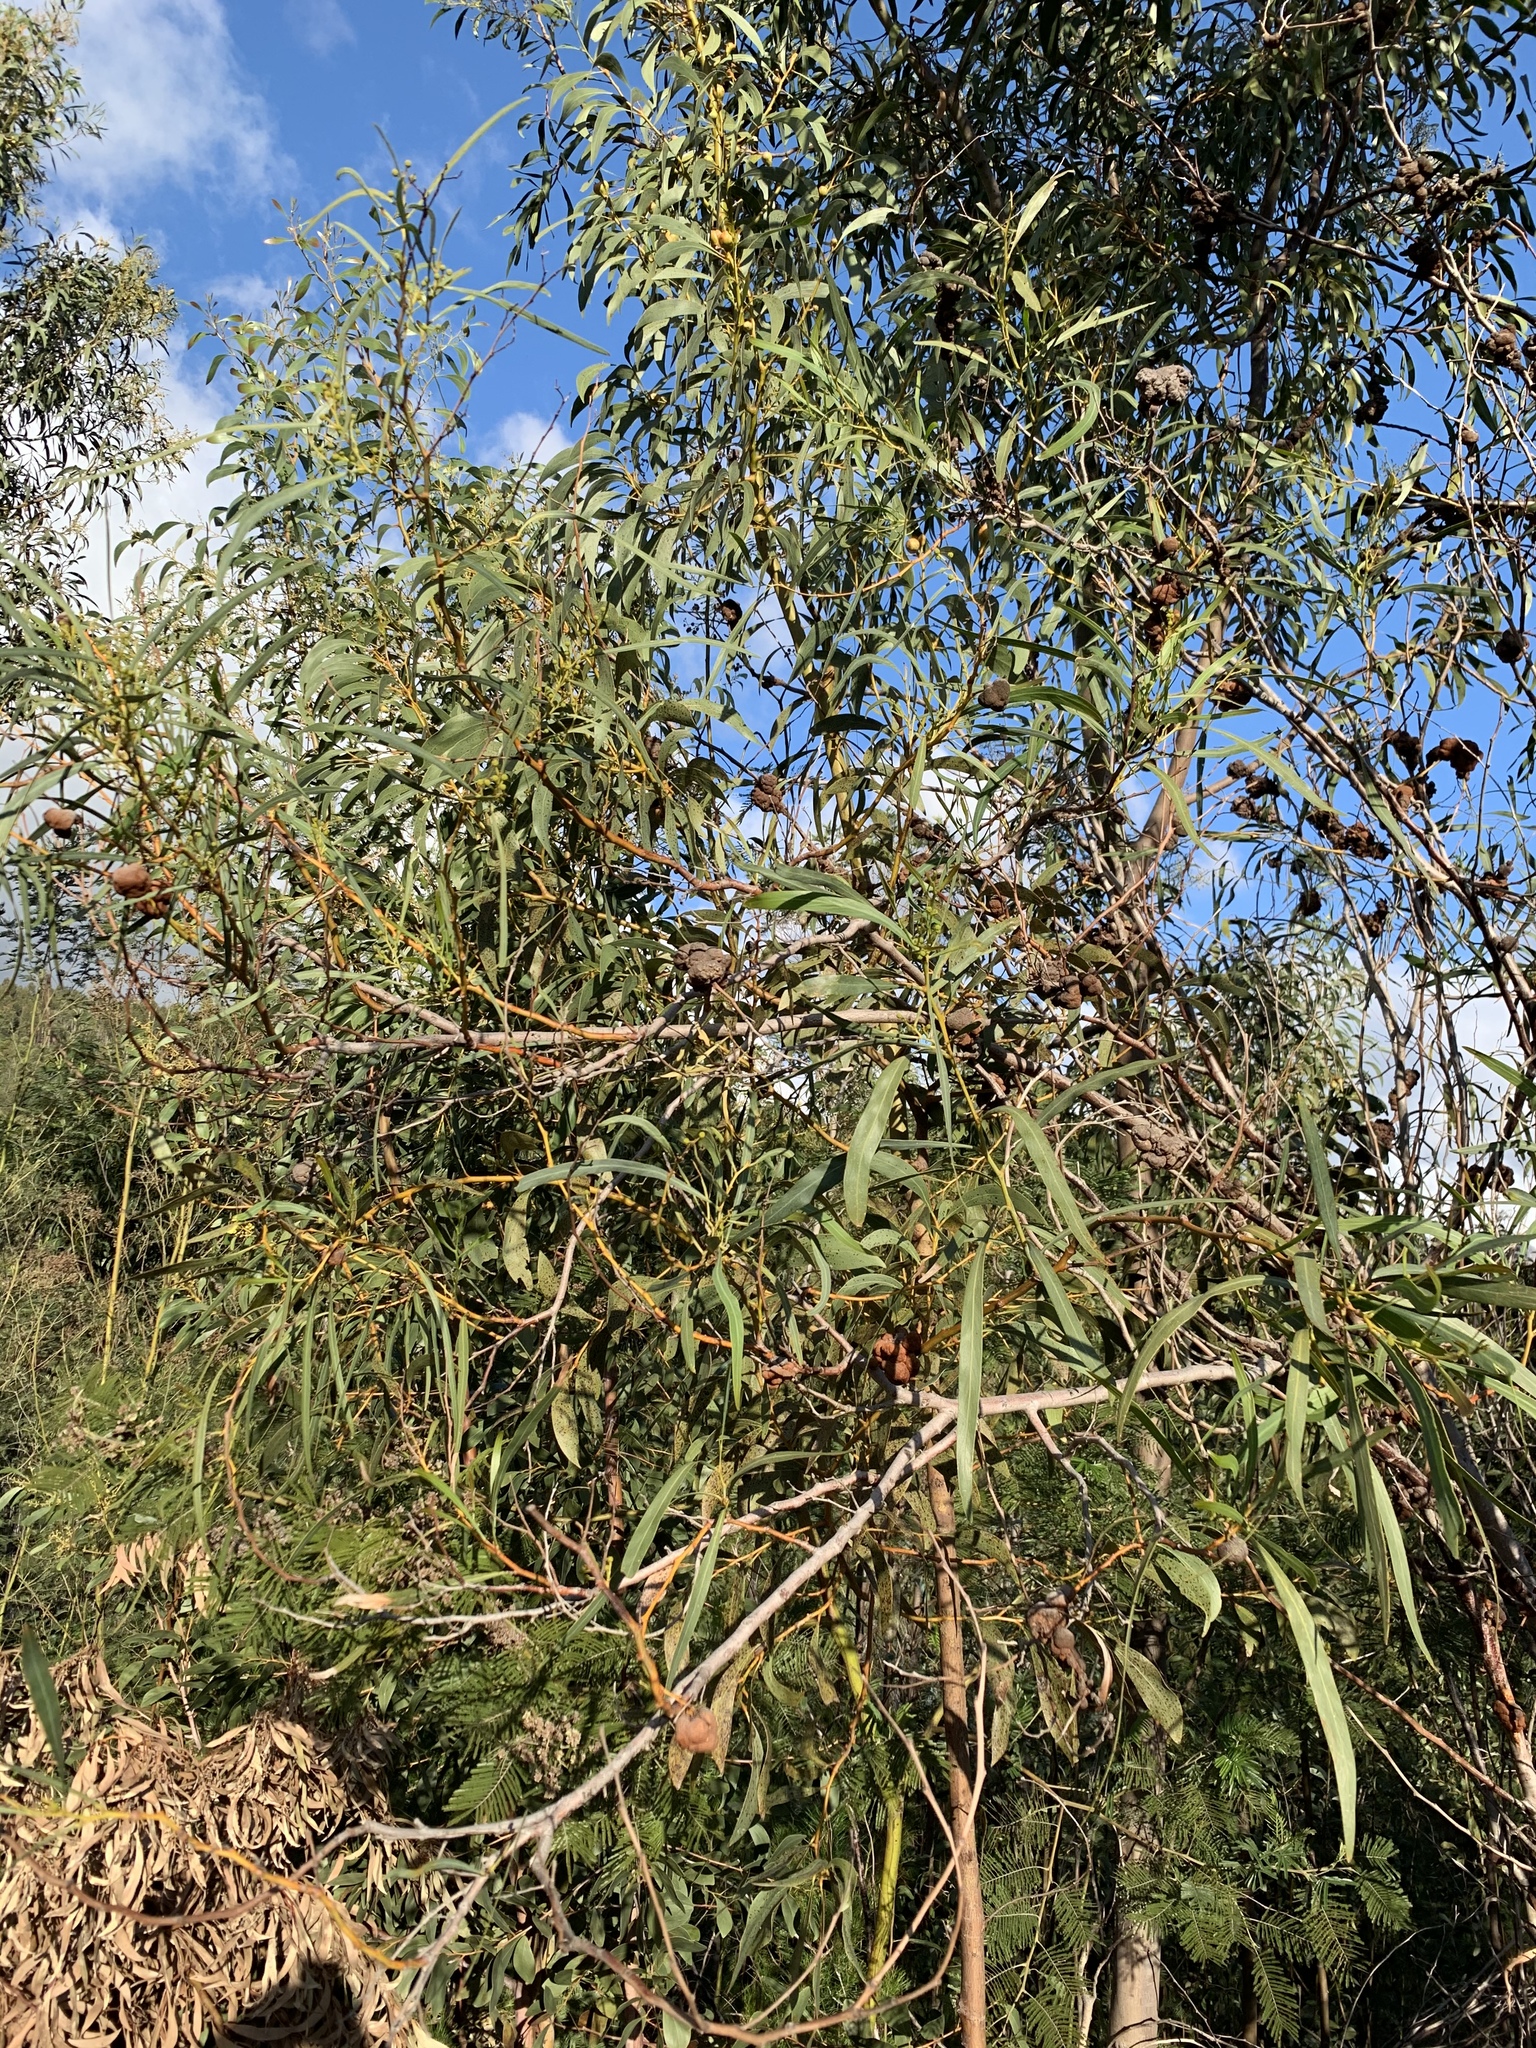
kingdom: Plantae
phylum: Tracheophyta
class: Magnoliopsida
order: Fabales
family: Fabaceae
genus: Acacia
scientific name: Acacia saligna
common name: Orange wattle
